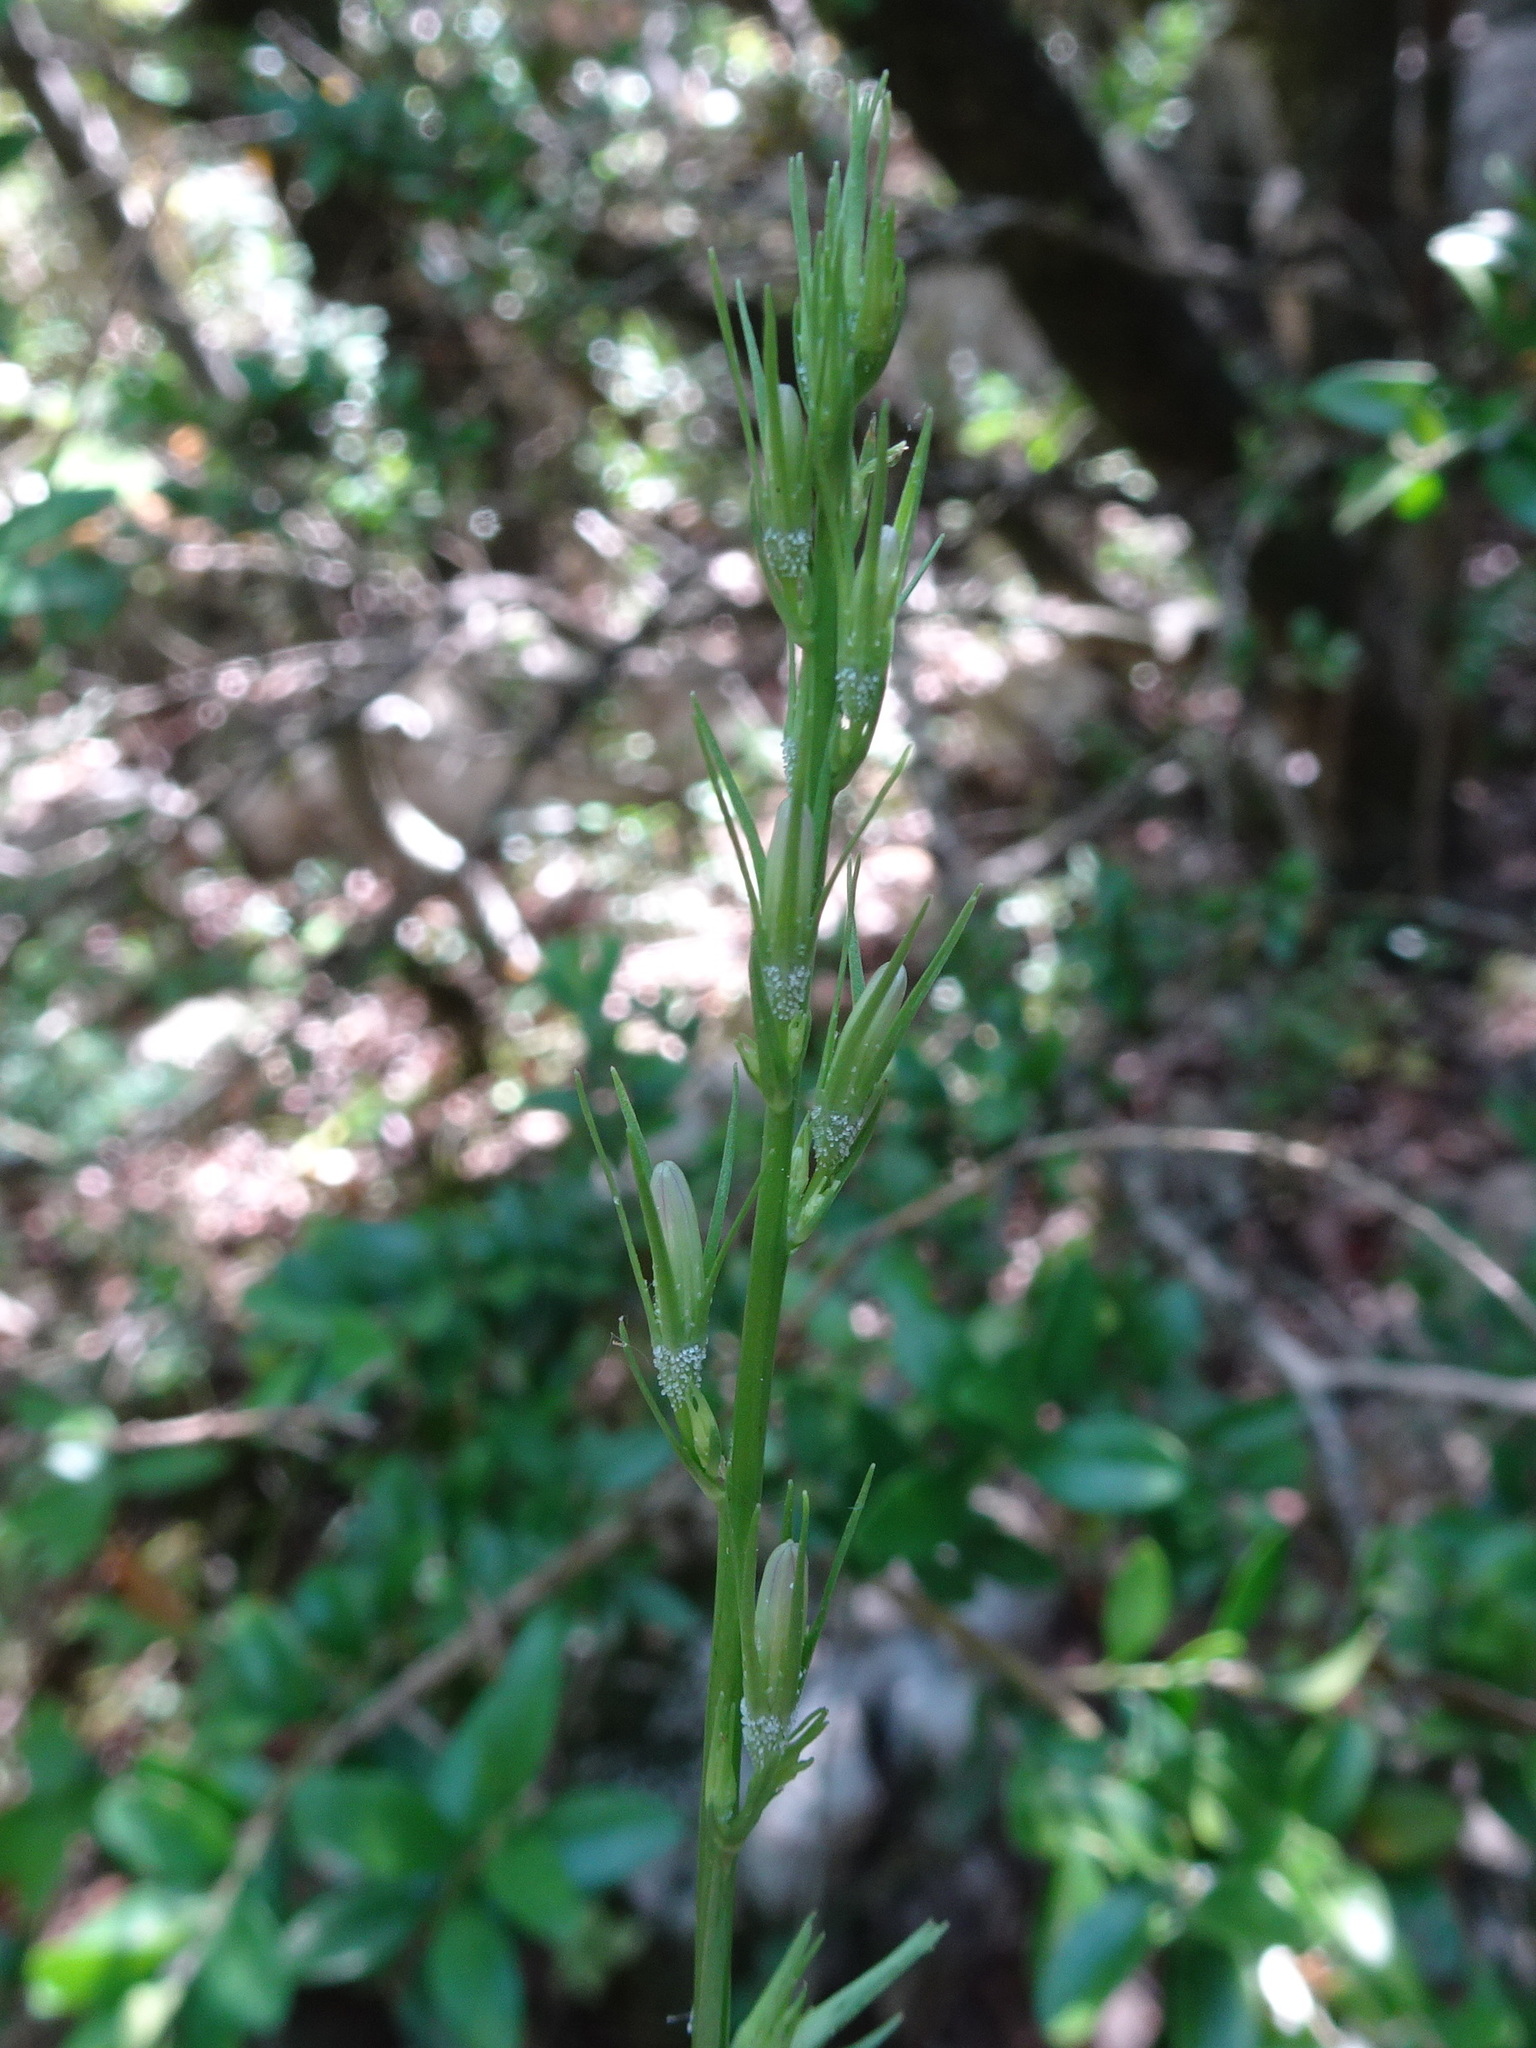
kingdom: Plantae
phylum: Tracheophyta
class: Magnoliopsida
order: Asterales
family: Campanulaceae
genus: Campanula
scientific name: Campanula rapunculus
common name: Rampion bellflower
